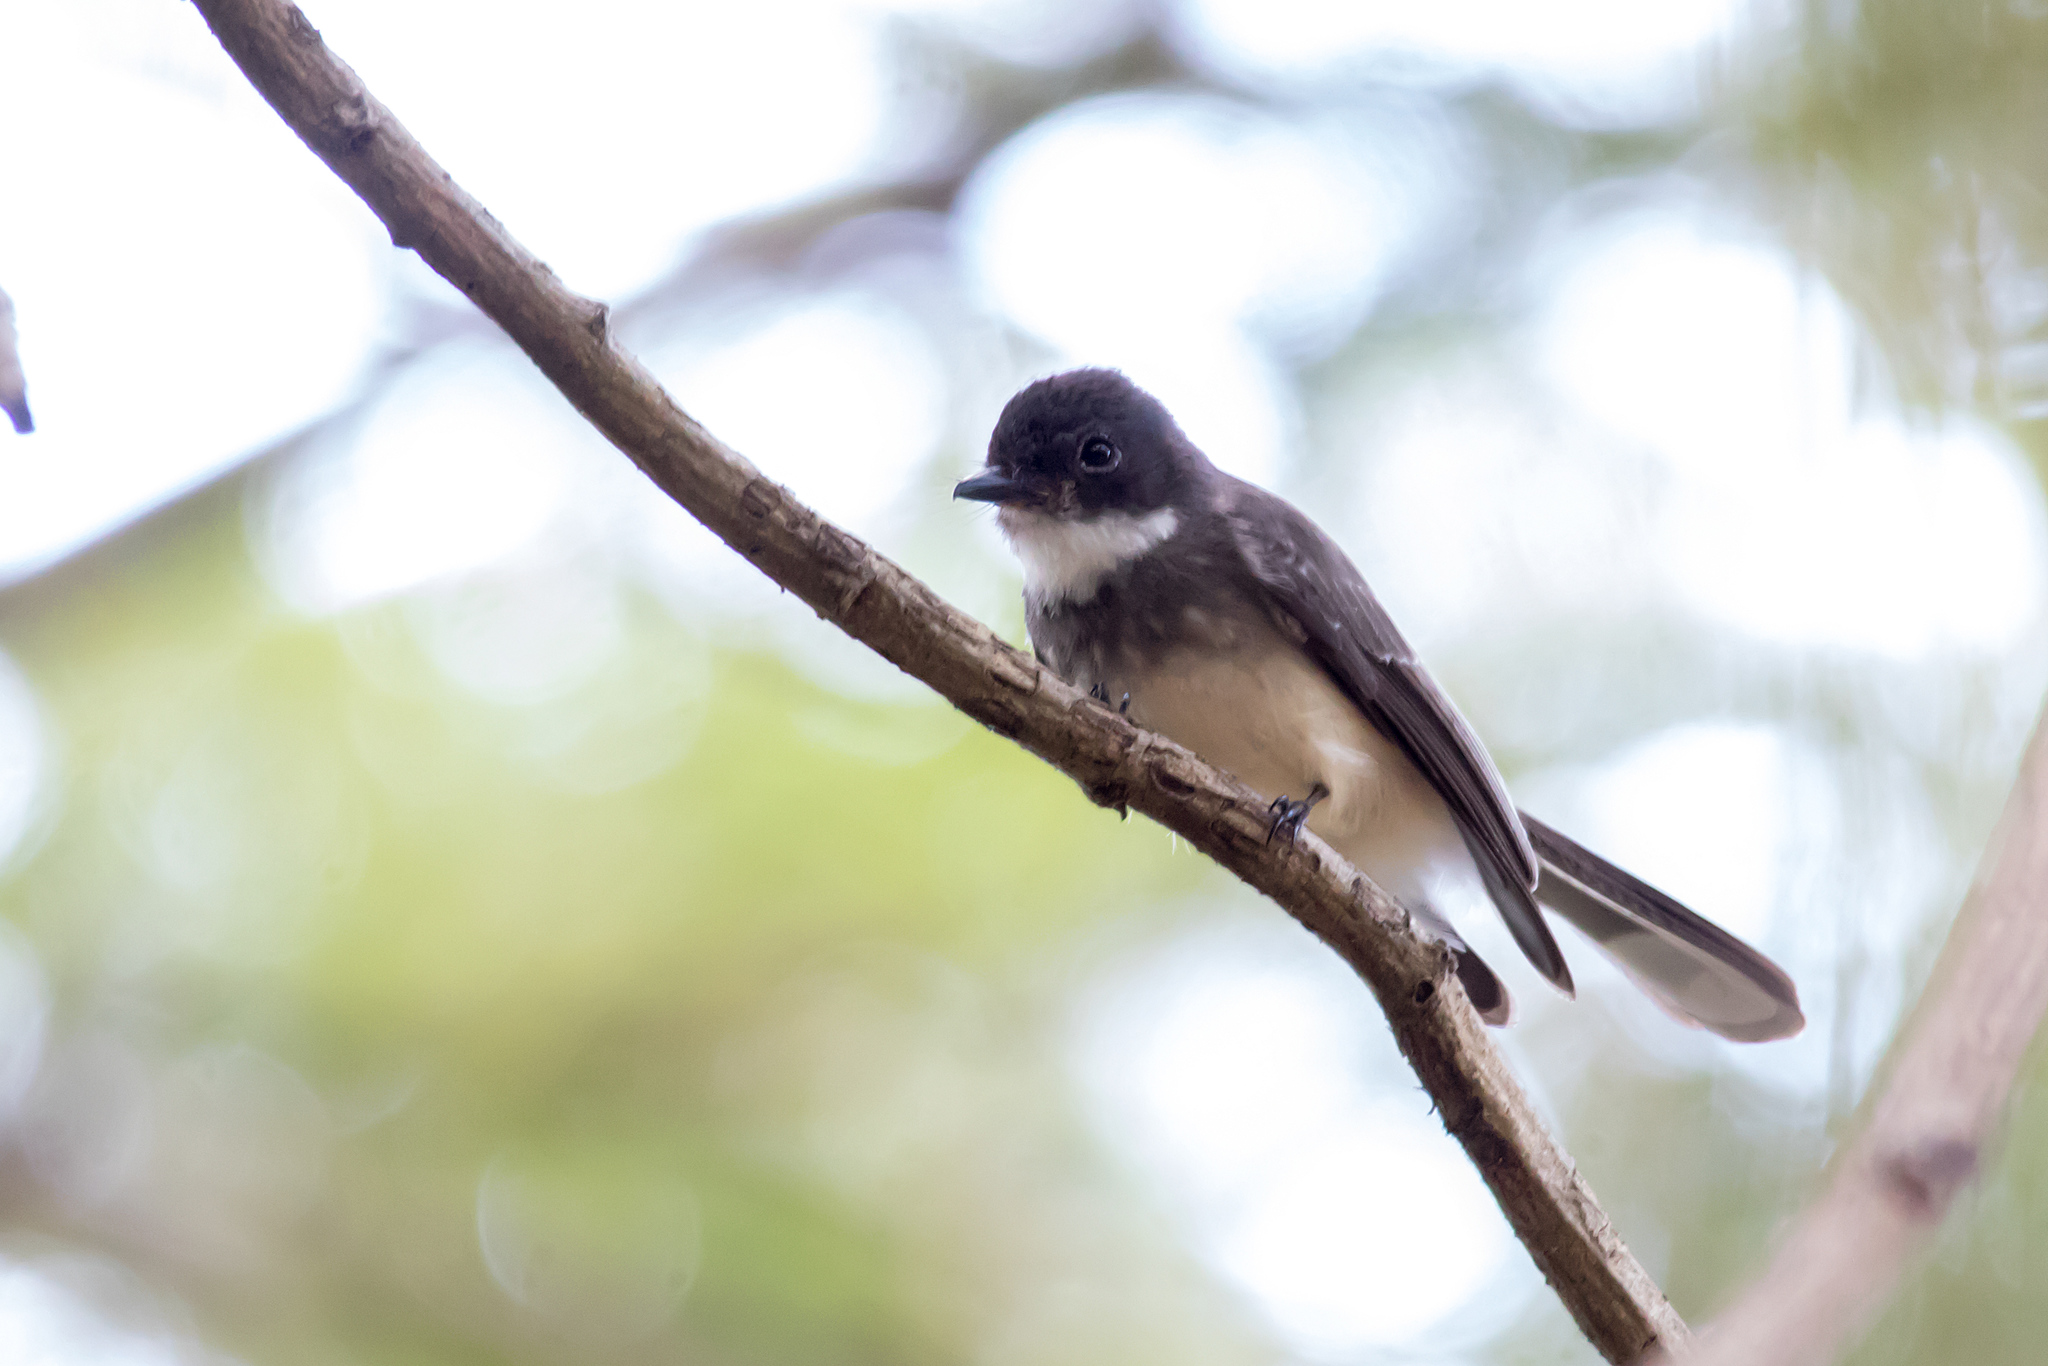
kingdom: Animalia
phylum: Chordata
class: Aves
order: Passeriformes
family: Rhipiduridae
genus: Rhipidura
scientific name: Rhipidura rufiventris
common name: Northern fantail
